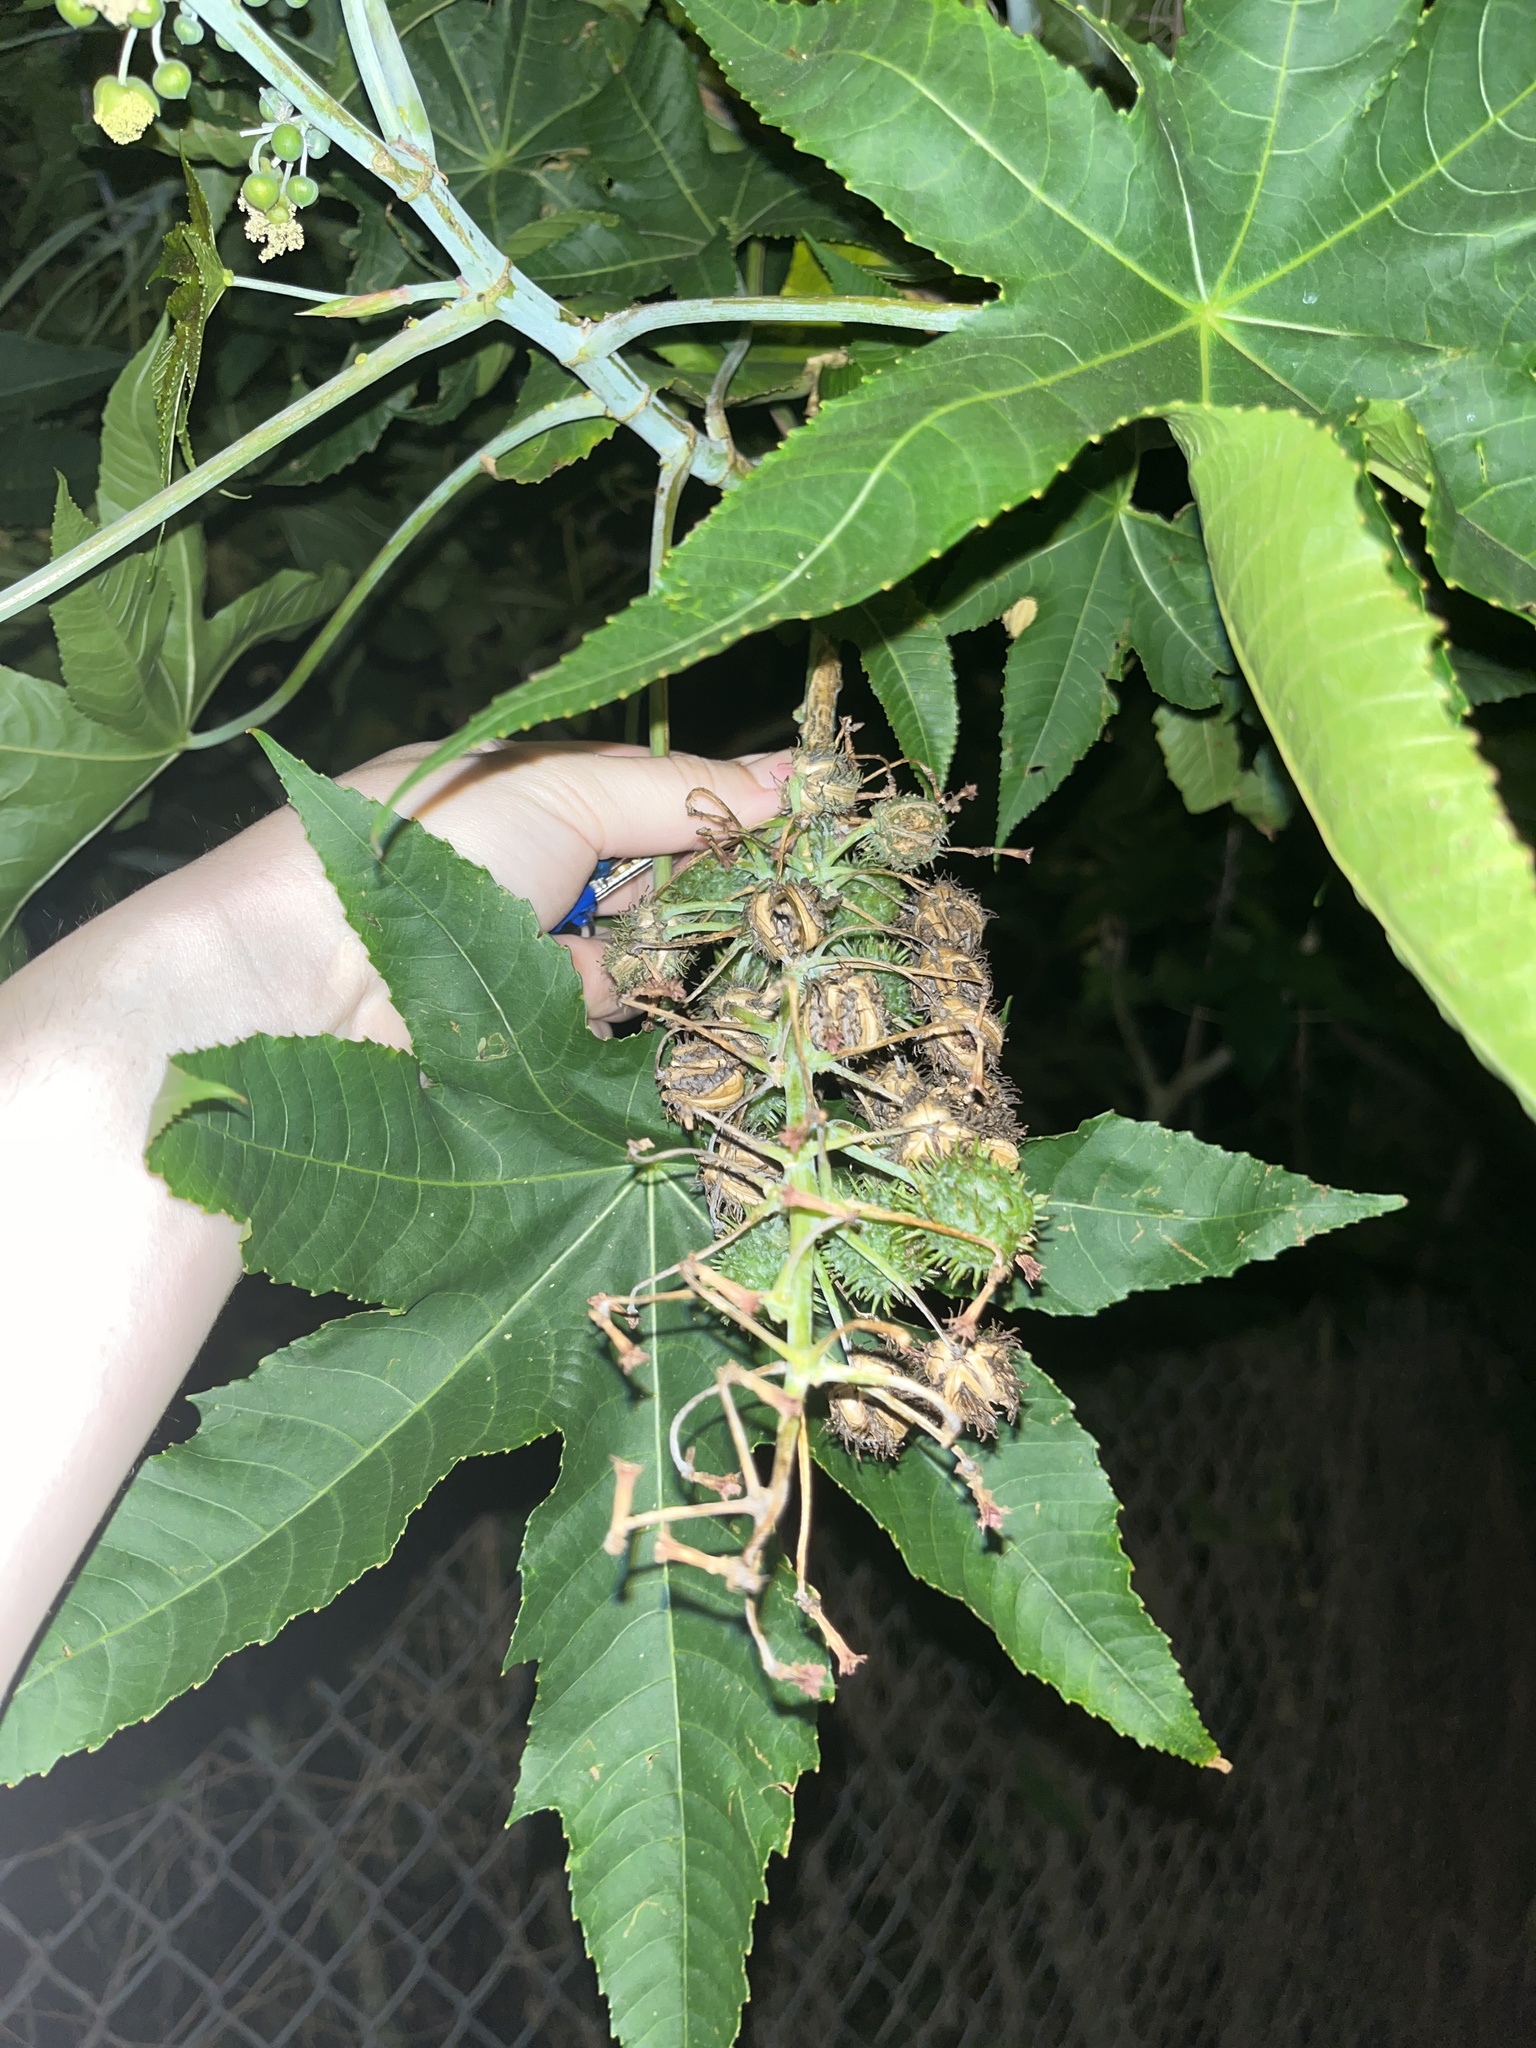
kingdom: Plantae
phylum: Tracheophyta
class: Magnoliopsida
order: Malpighiales
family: Euphorbiaceae
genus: Ricinus
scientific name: Ricinus communis
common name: Castor-oil-plant
